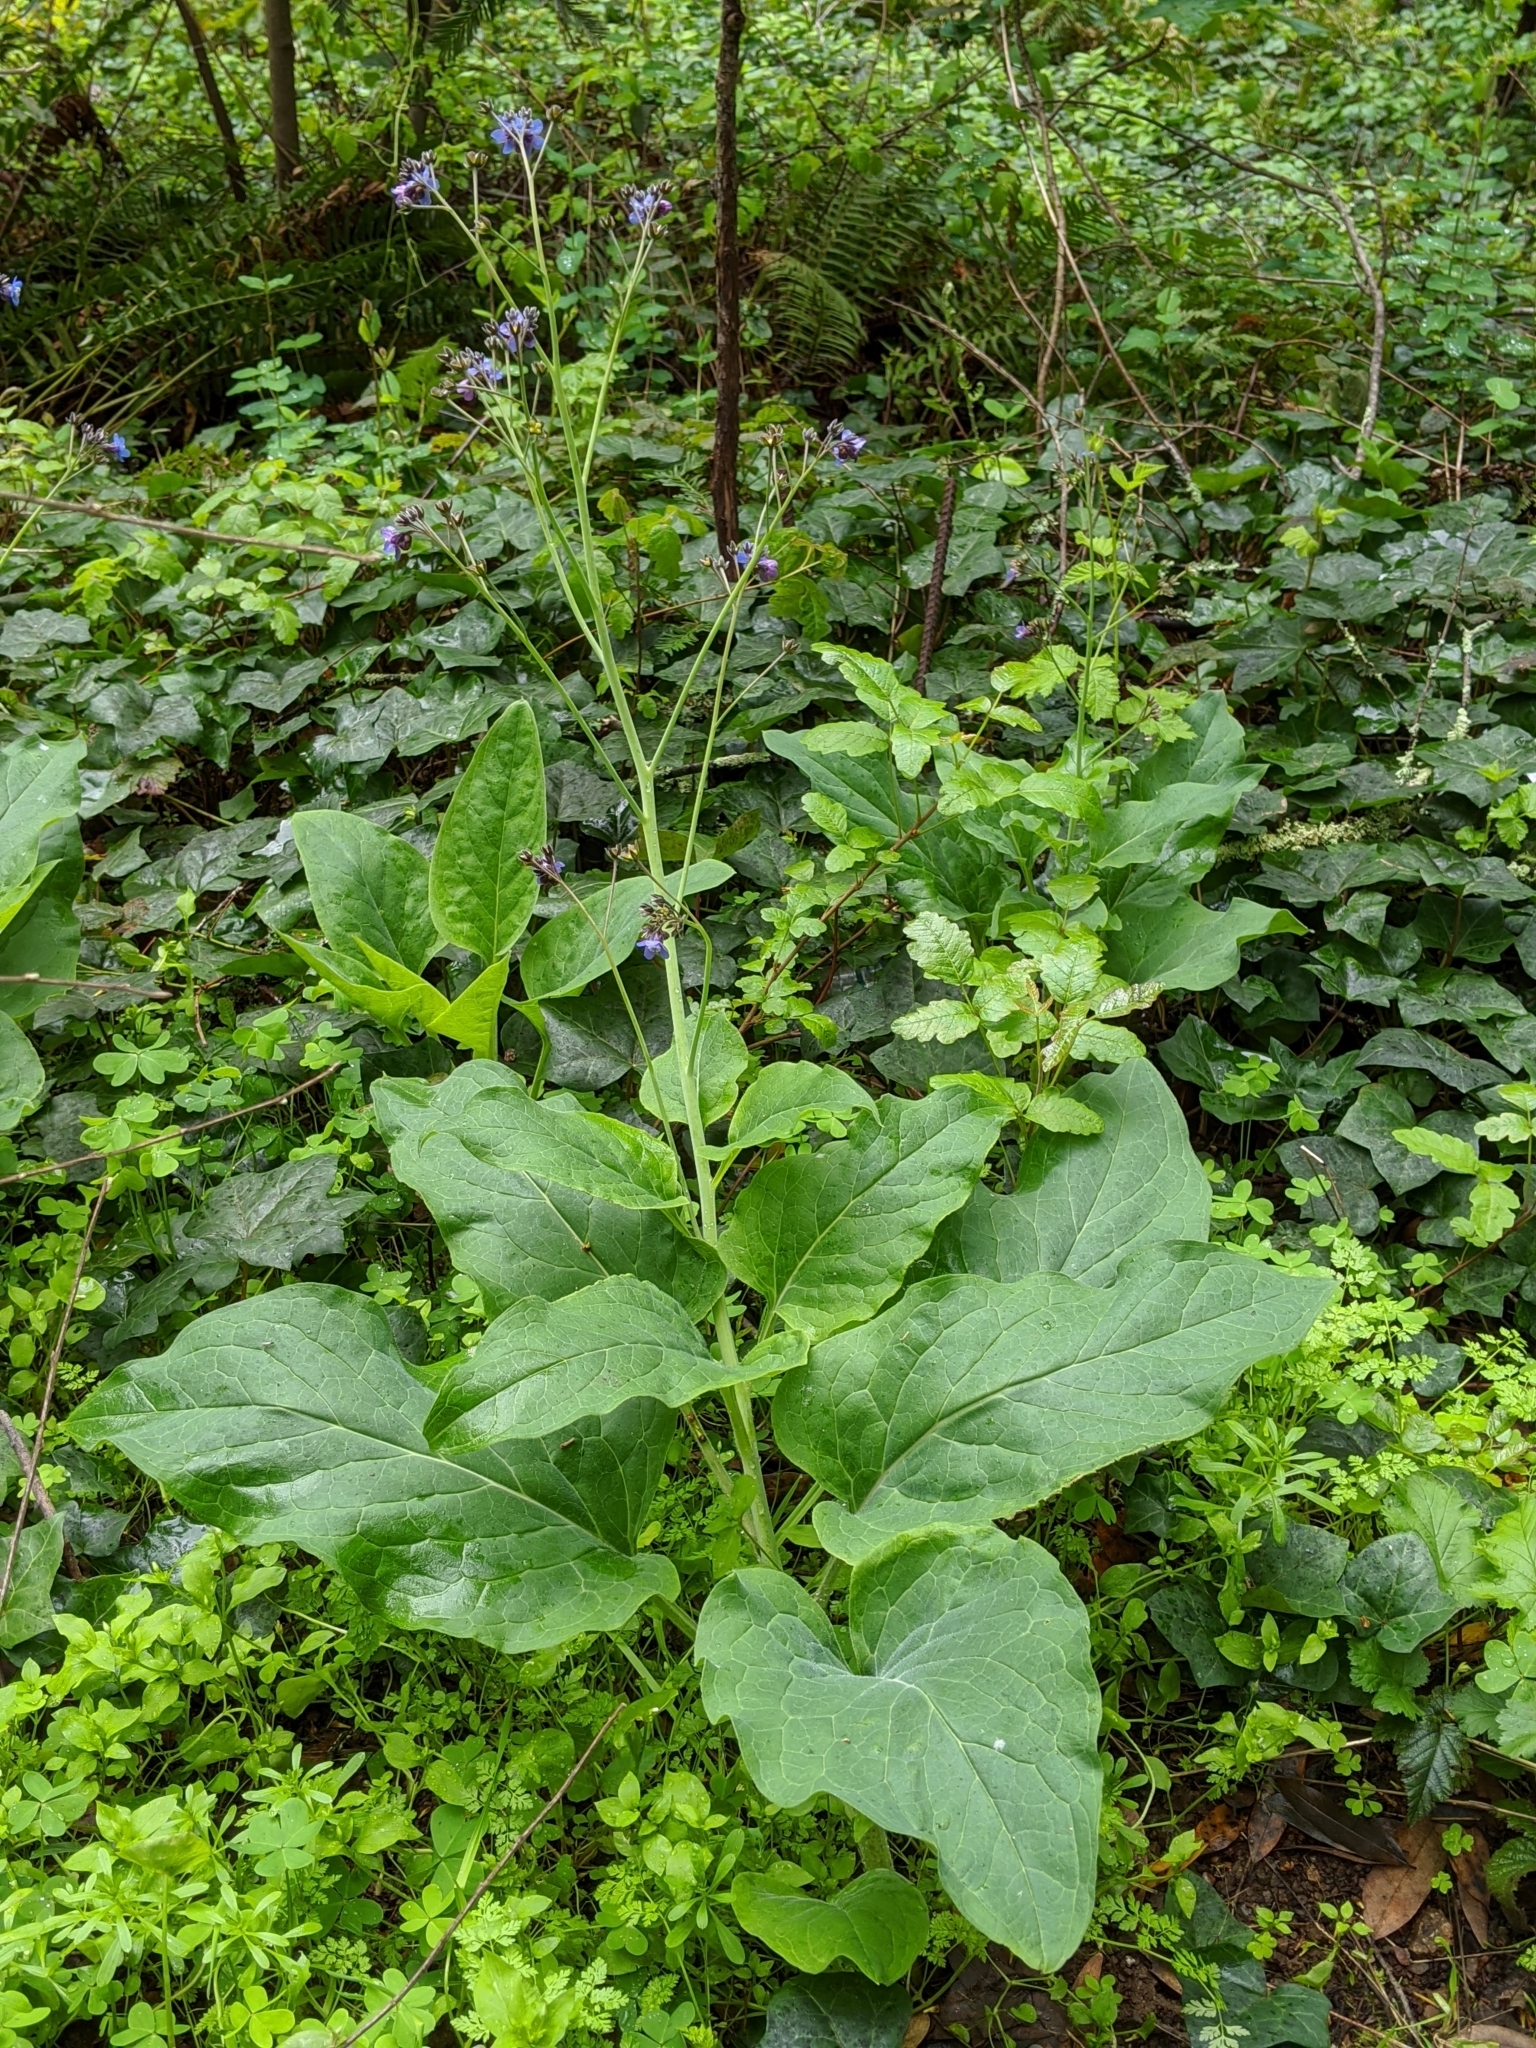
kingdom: Plantae
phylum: Tracheophyta
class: Magnoliopsida
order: Boraginales
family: Boraginaceae
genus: Adelinia
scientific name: Adelinia grande
